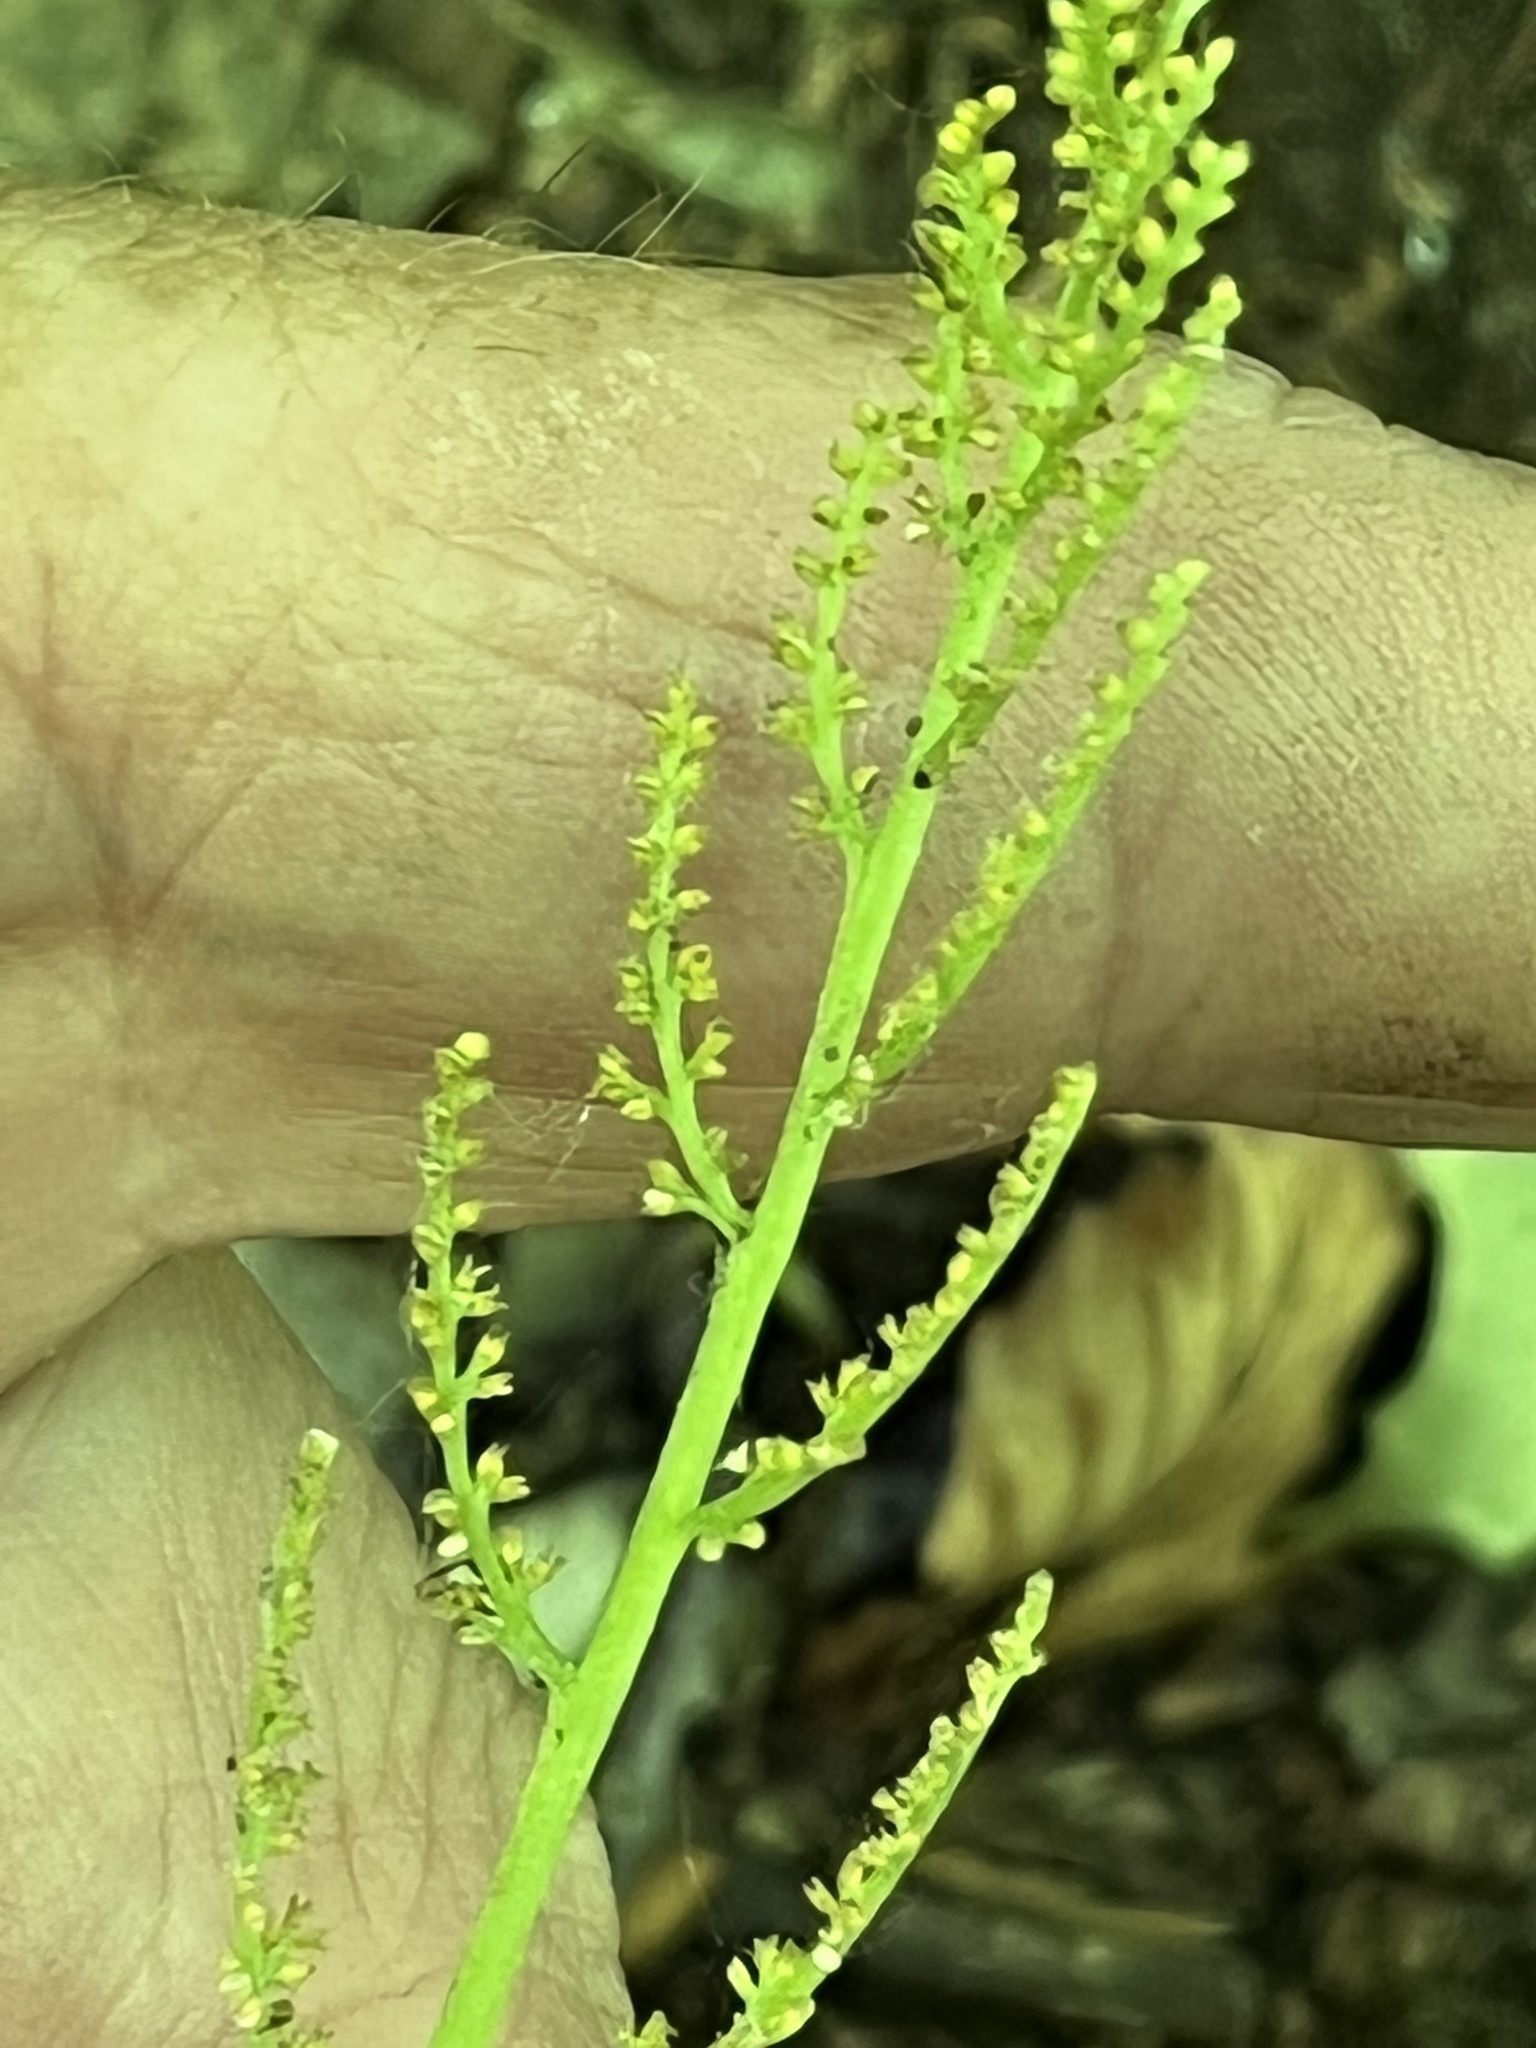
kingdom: Plantae
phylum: Tracheophyta
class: Polypodiopsida
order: Ophioglossales
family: Ophioglossaceae
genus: Botrypus
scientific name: Botrypus virginianus
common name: Common grapefern
